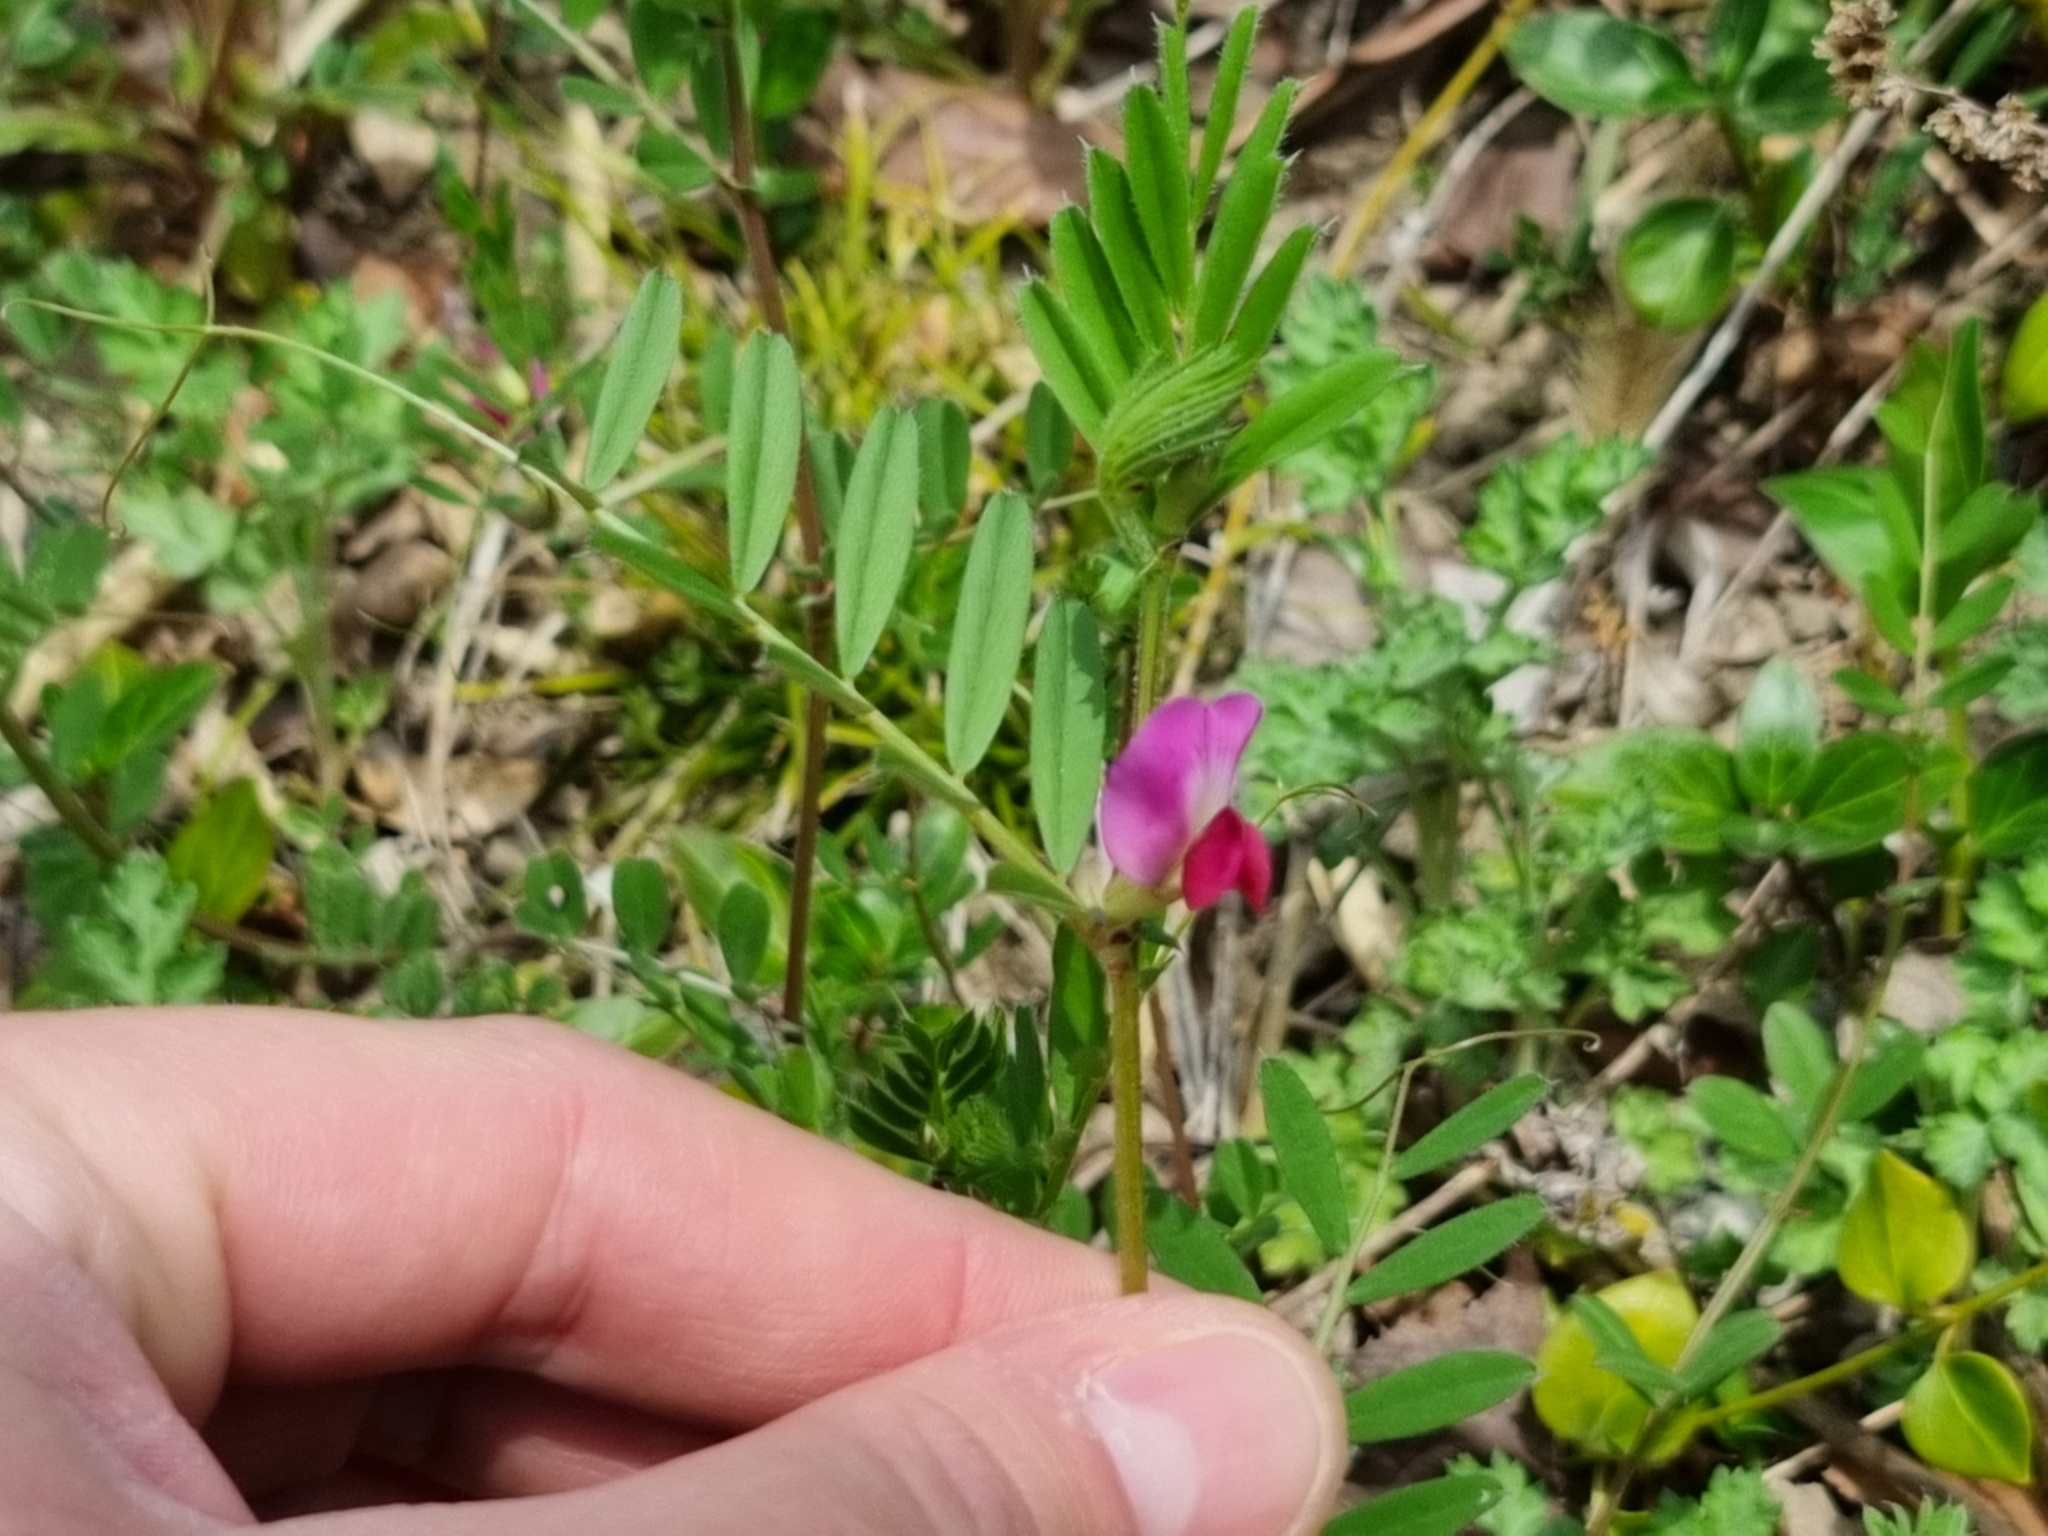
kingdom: Plantae
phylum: Tracheophyta
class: Magnoliopsida
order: Fabales
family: Fabaceae
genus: Vicia
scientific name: Vicia sativa
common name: Garden vetch
